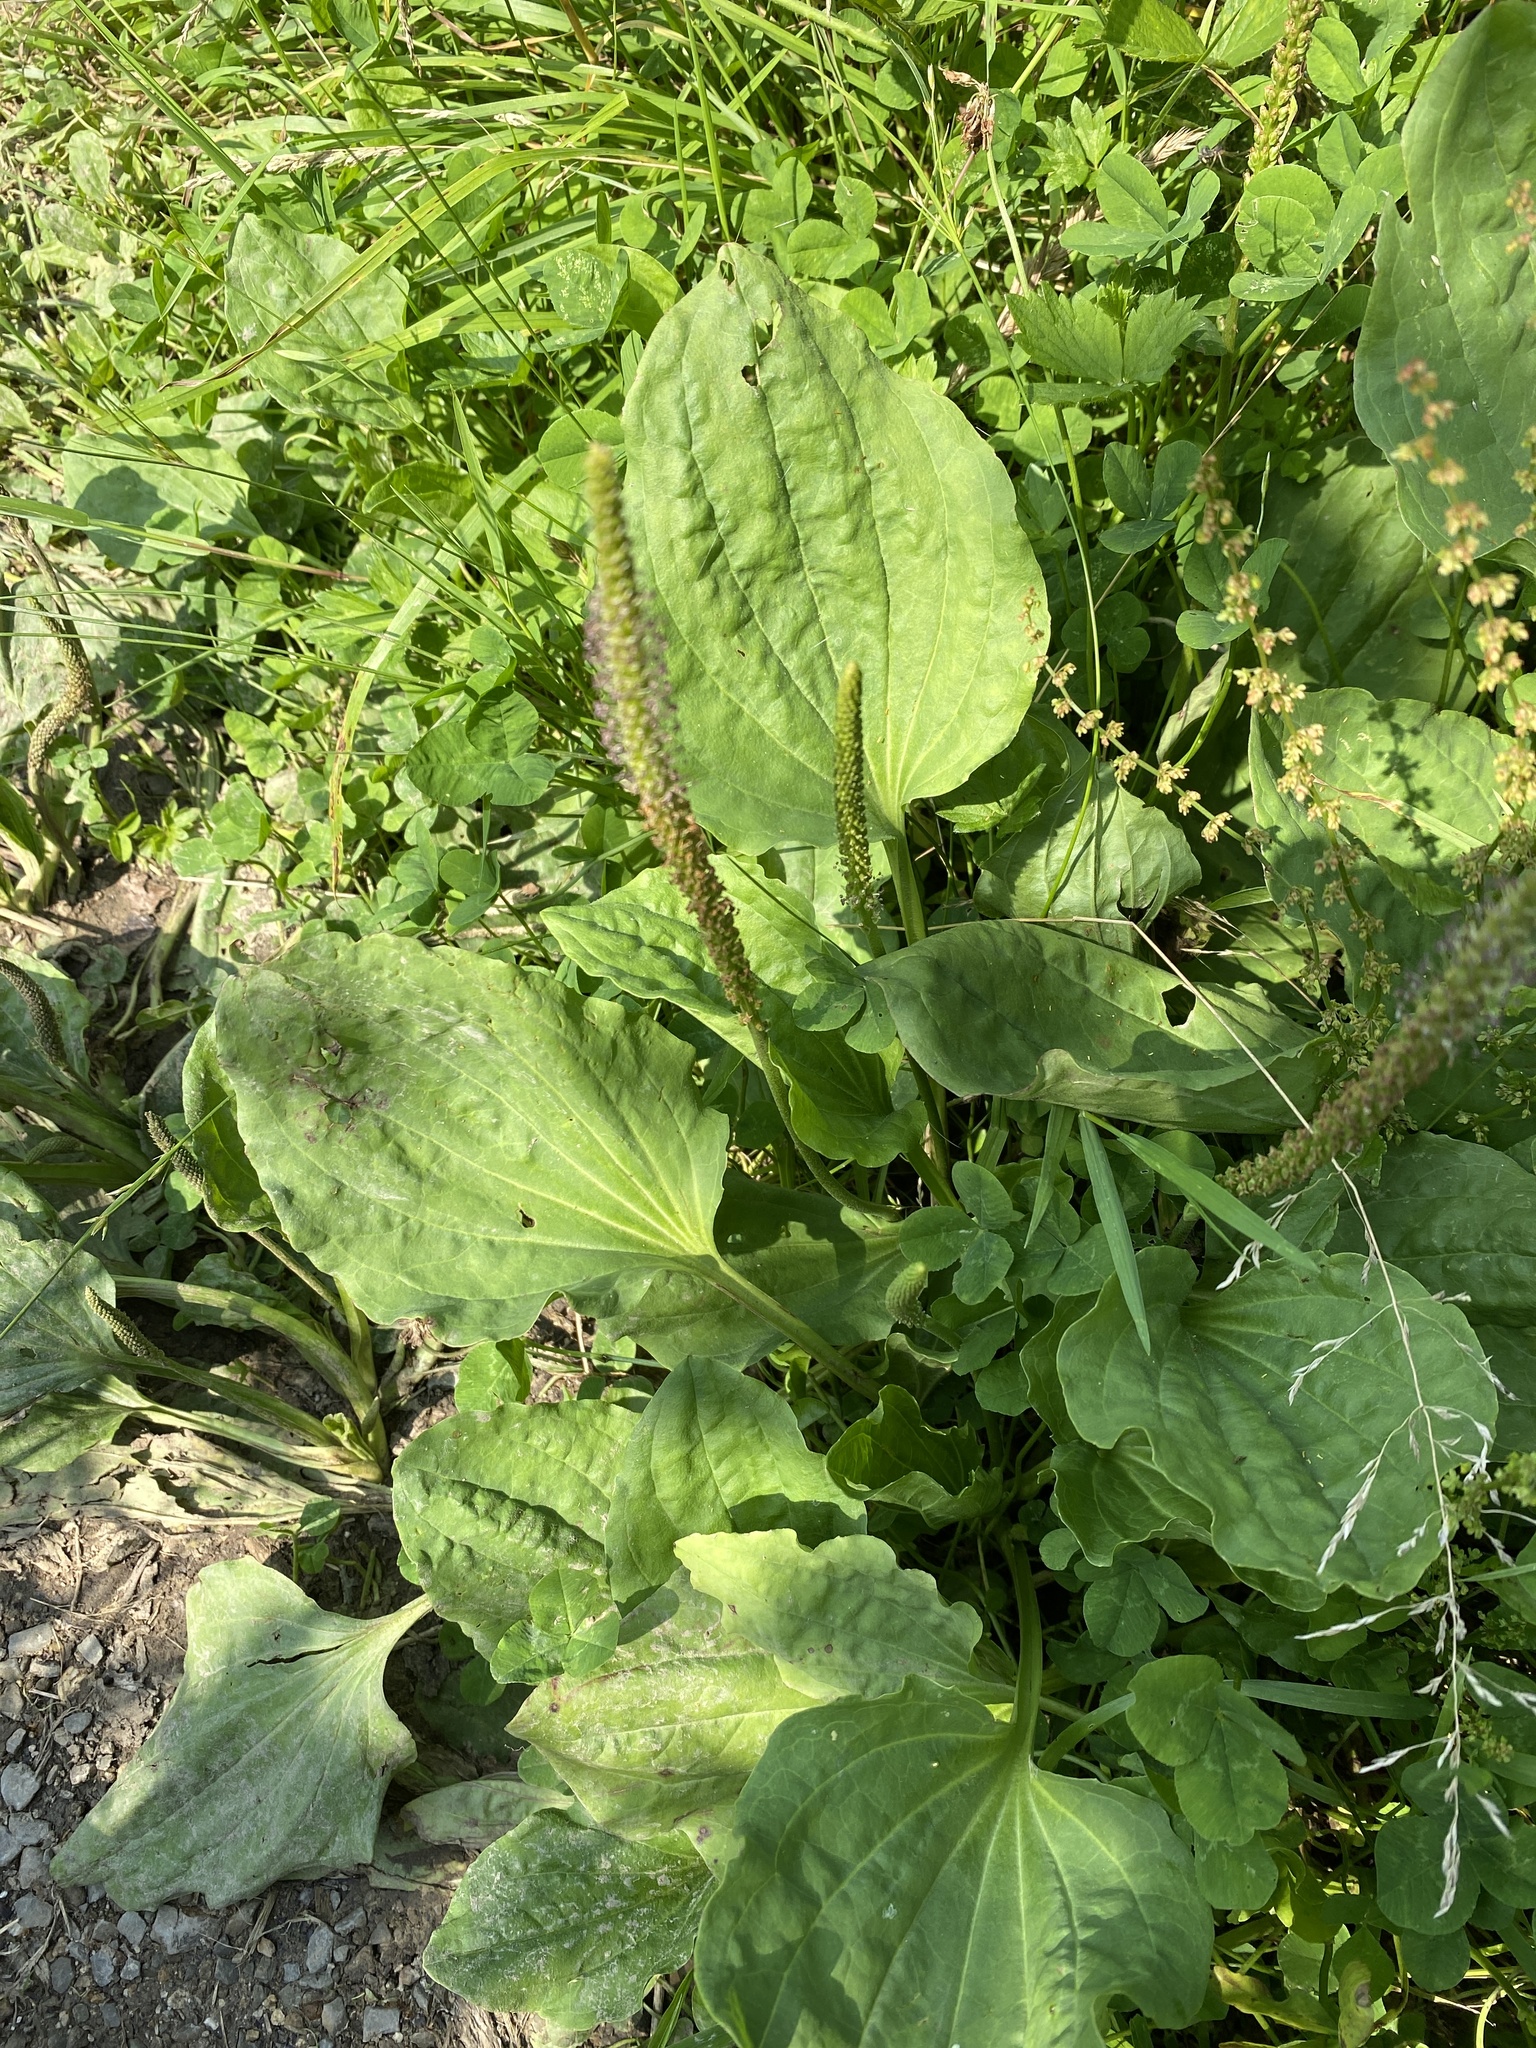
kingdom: Plantae
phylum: Tracheophyta
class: Magnoliopsida
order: Lamiales
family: Plantaginaceae
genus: Plantago
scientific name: Plantago major
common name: Common plantain
